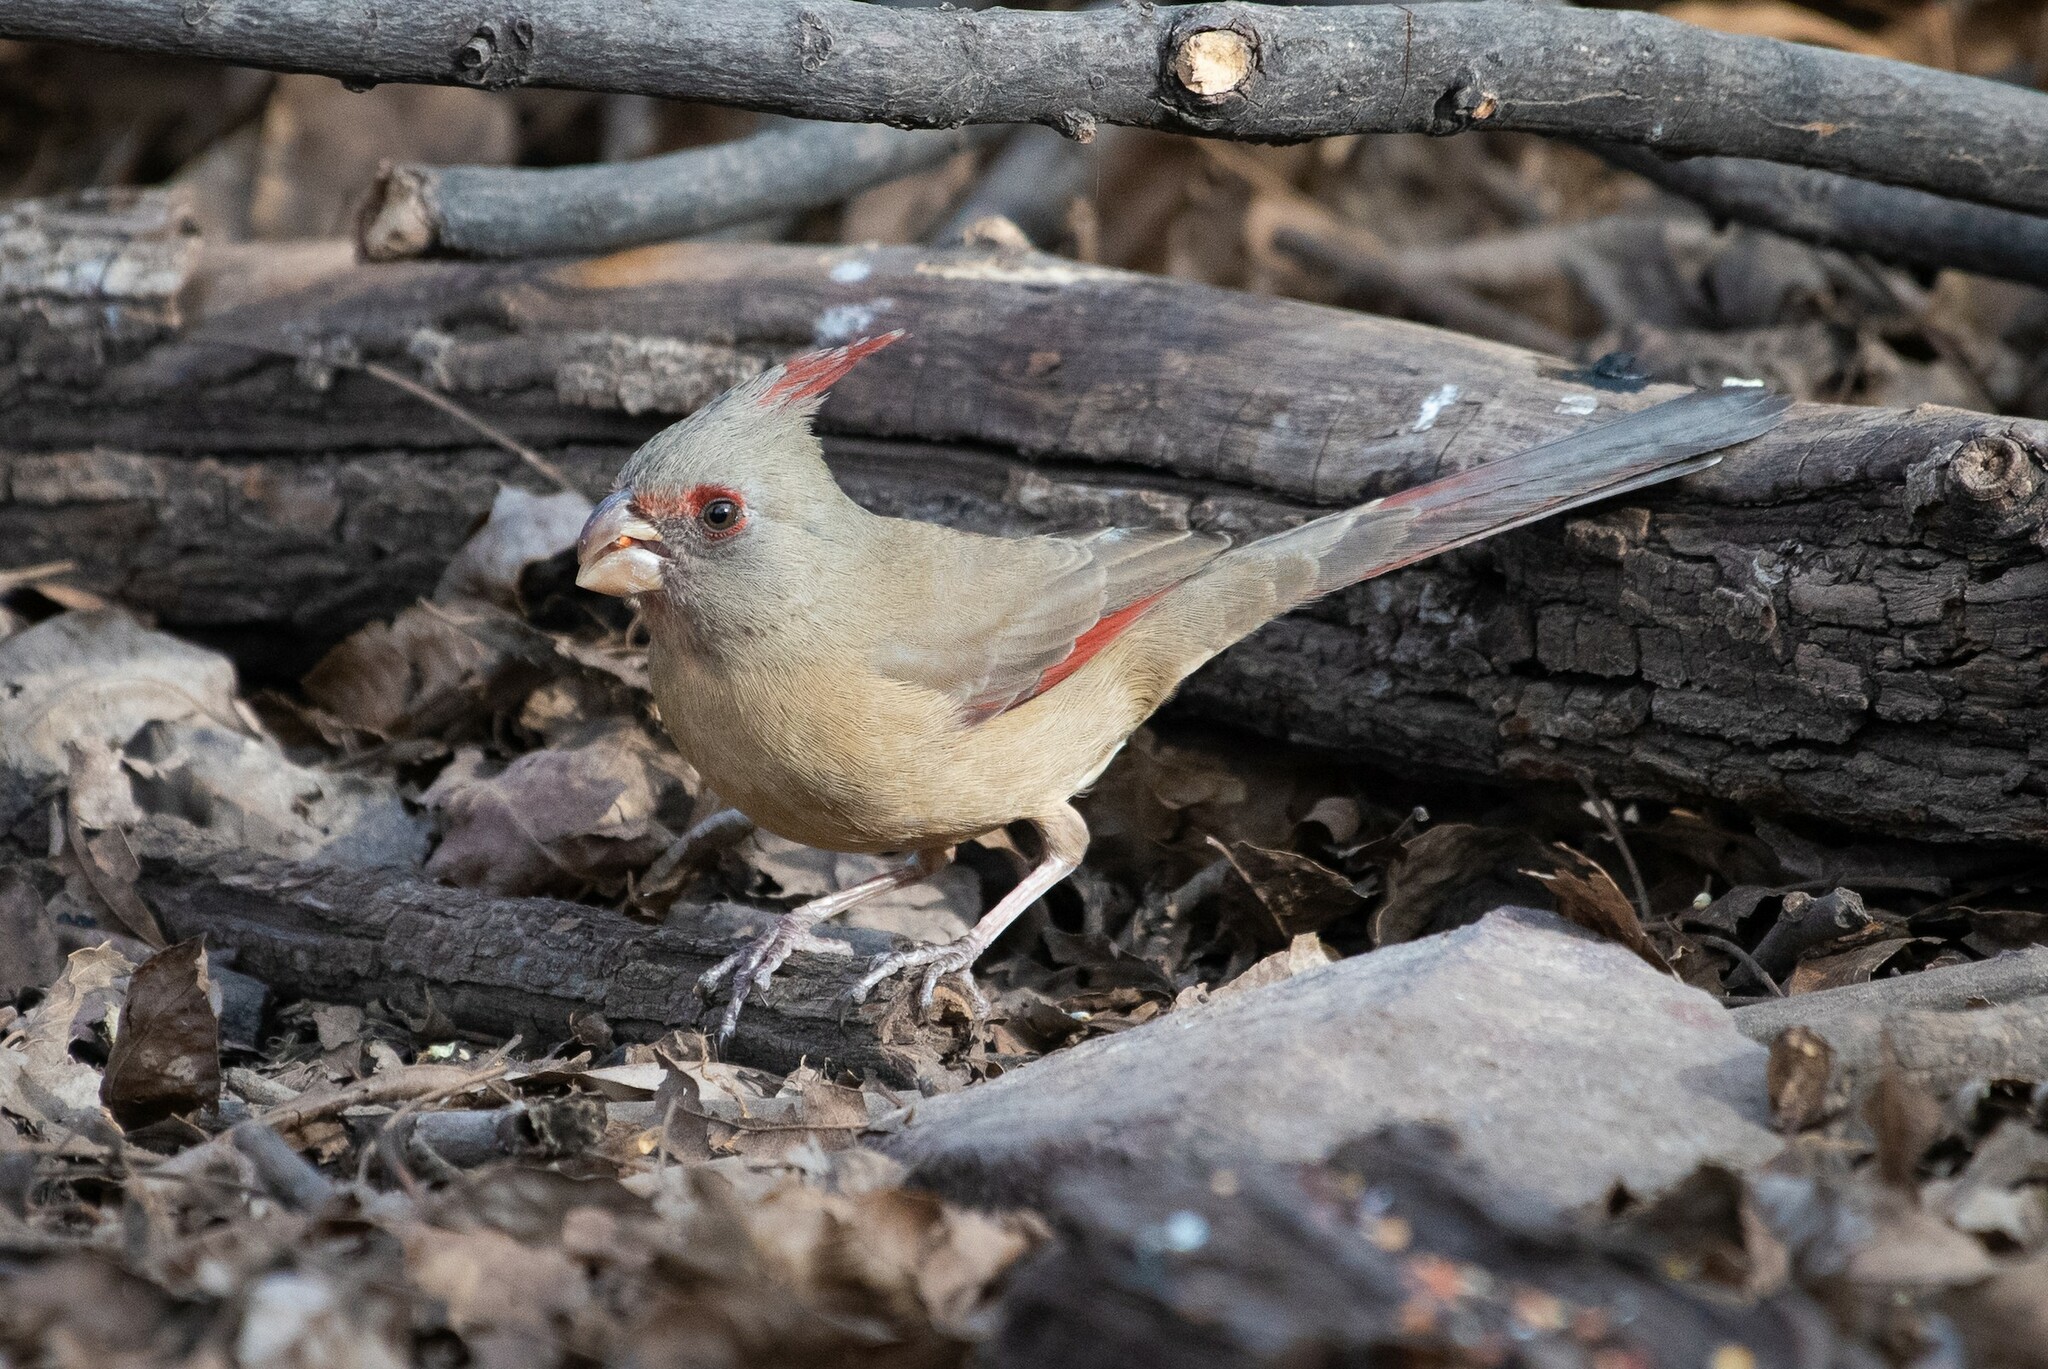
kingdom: Animalia
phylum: Chordata
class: Aves
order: Passeriformes
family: Cardinalidae
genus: Cardinalis
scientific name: Cardinalis sinuatus
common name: Pyrrhuloxia
